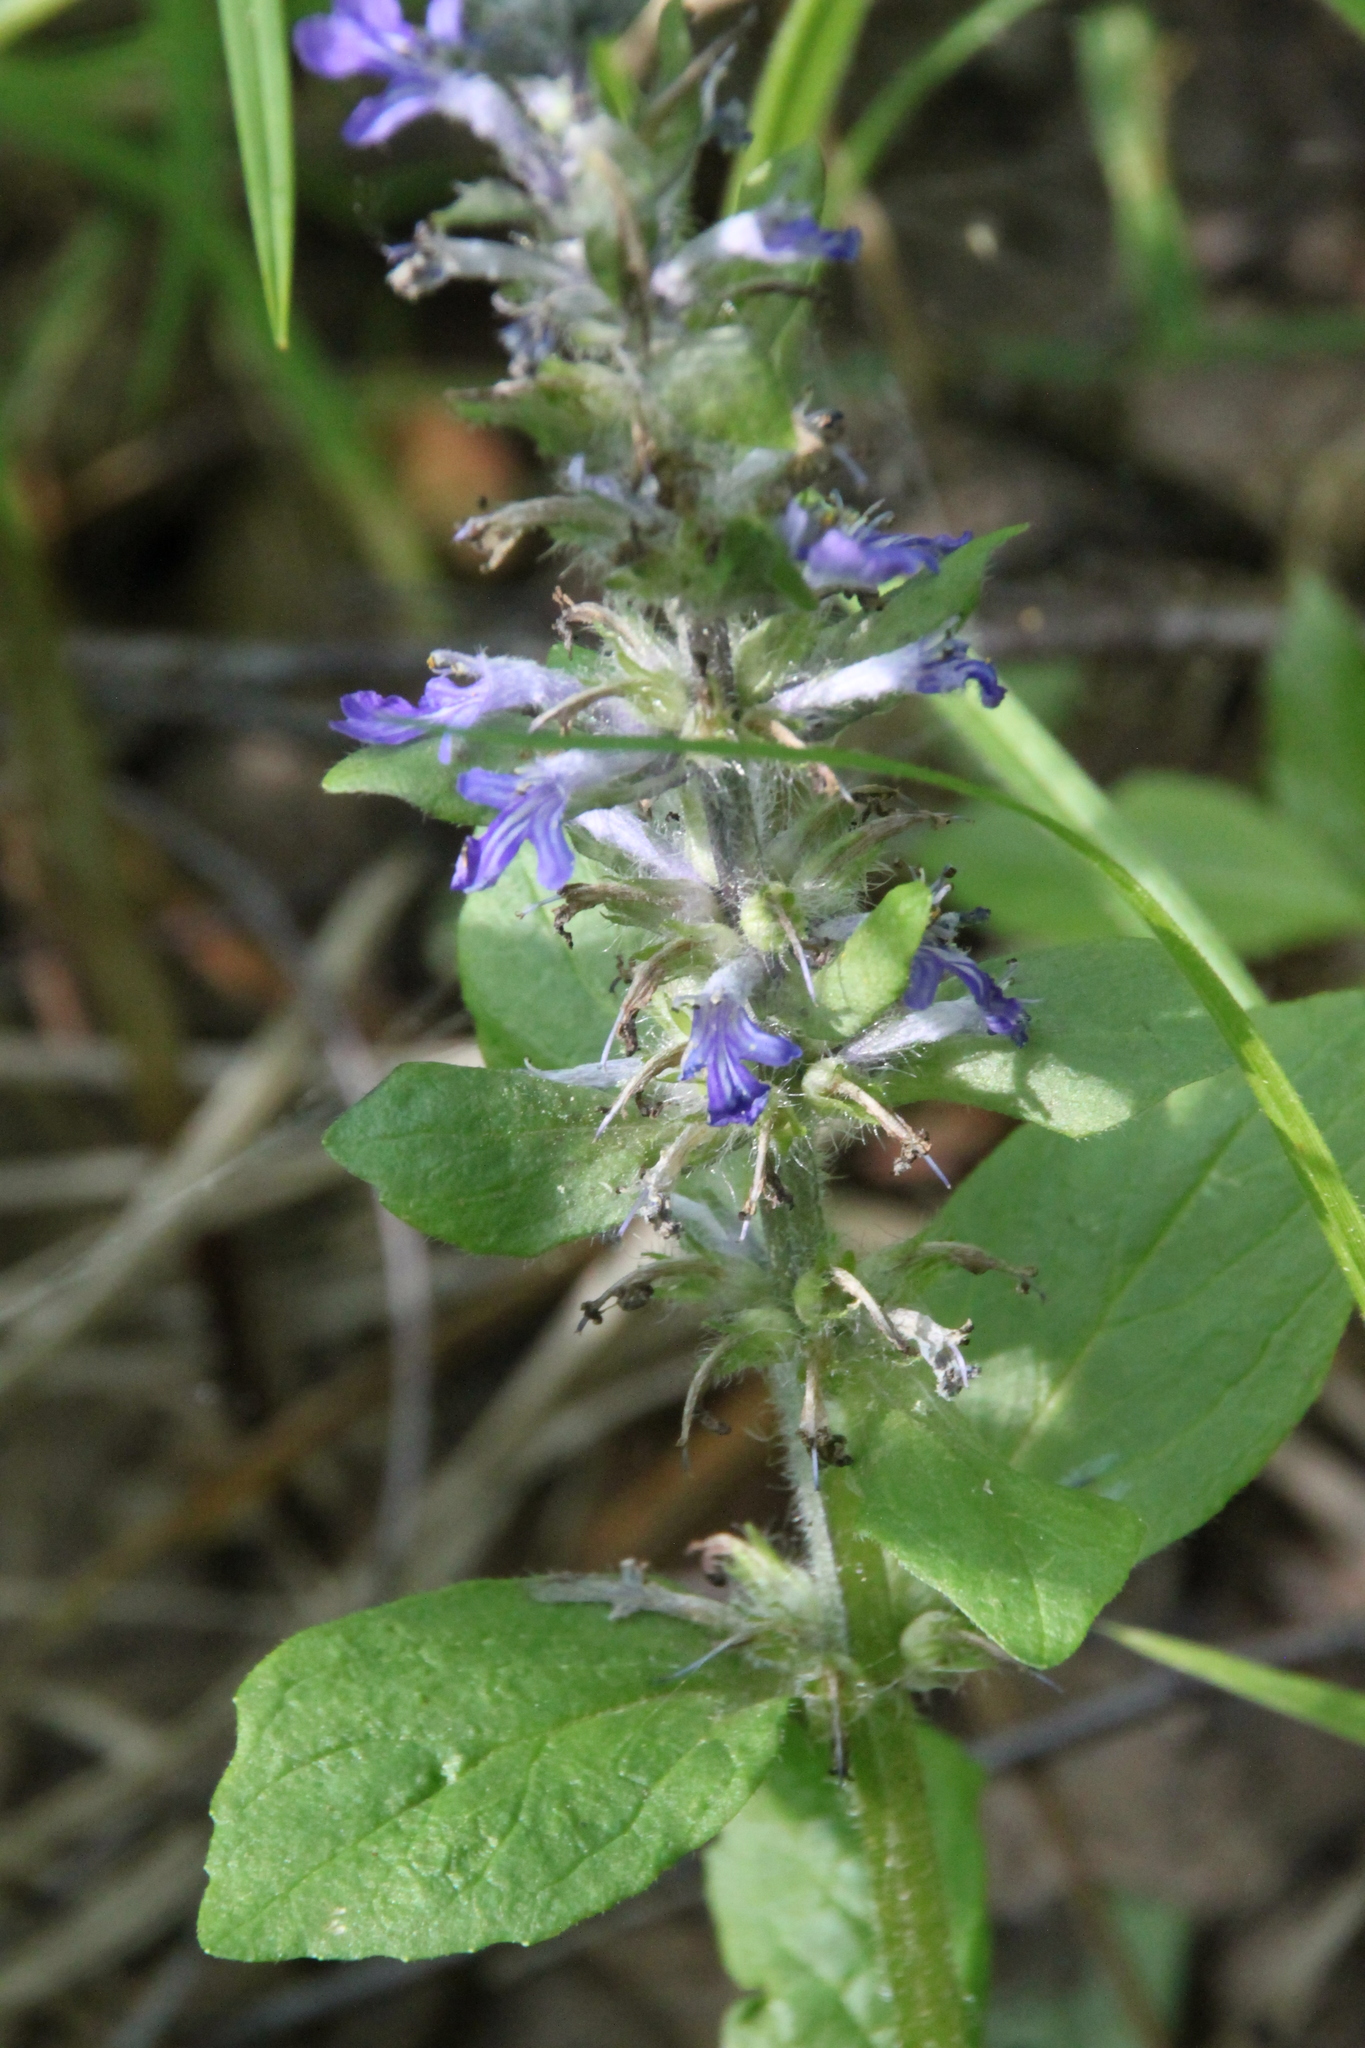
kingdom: Plantae
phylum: Tracheophyta
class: Magnoliopsida
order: Lamiales
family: Lamiaceae
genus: Ajuga
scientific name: Ajuga reptans
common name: Bugle
